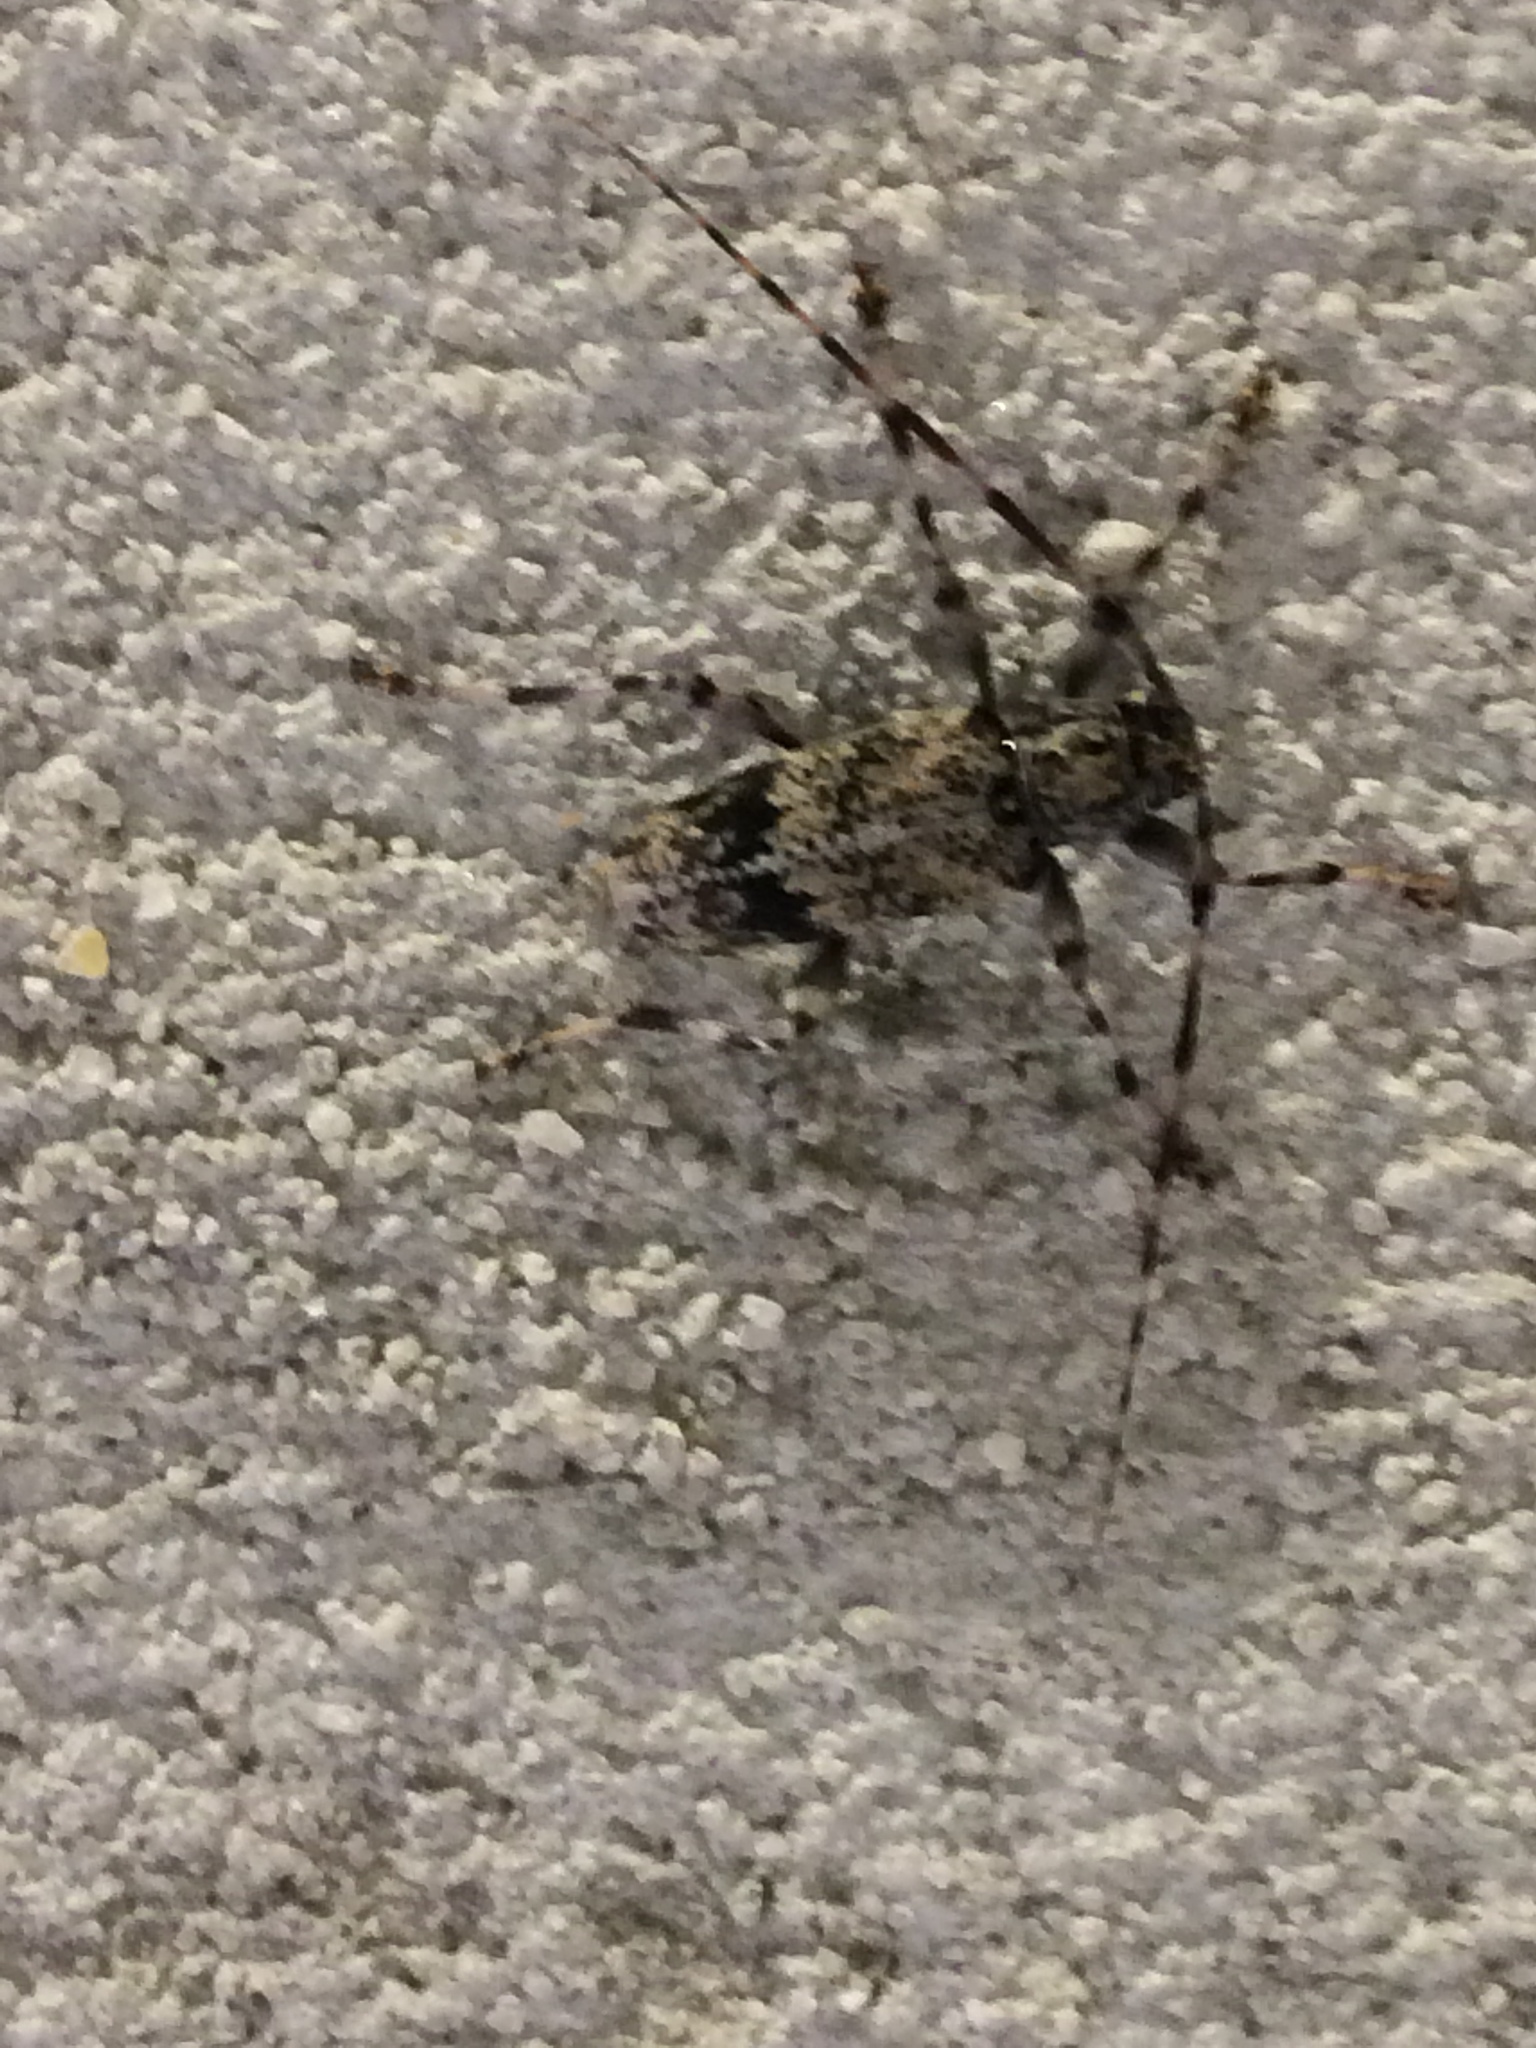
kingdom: Animalia
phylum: Arthropoda
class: Insecta
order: Coleoptera
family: Cerambycidae
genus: Graphisurus
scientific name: Graphisurus fasciatus
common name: Banded graphisurus
